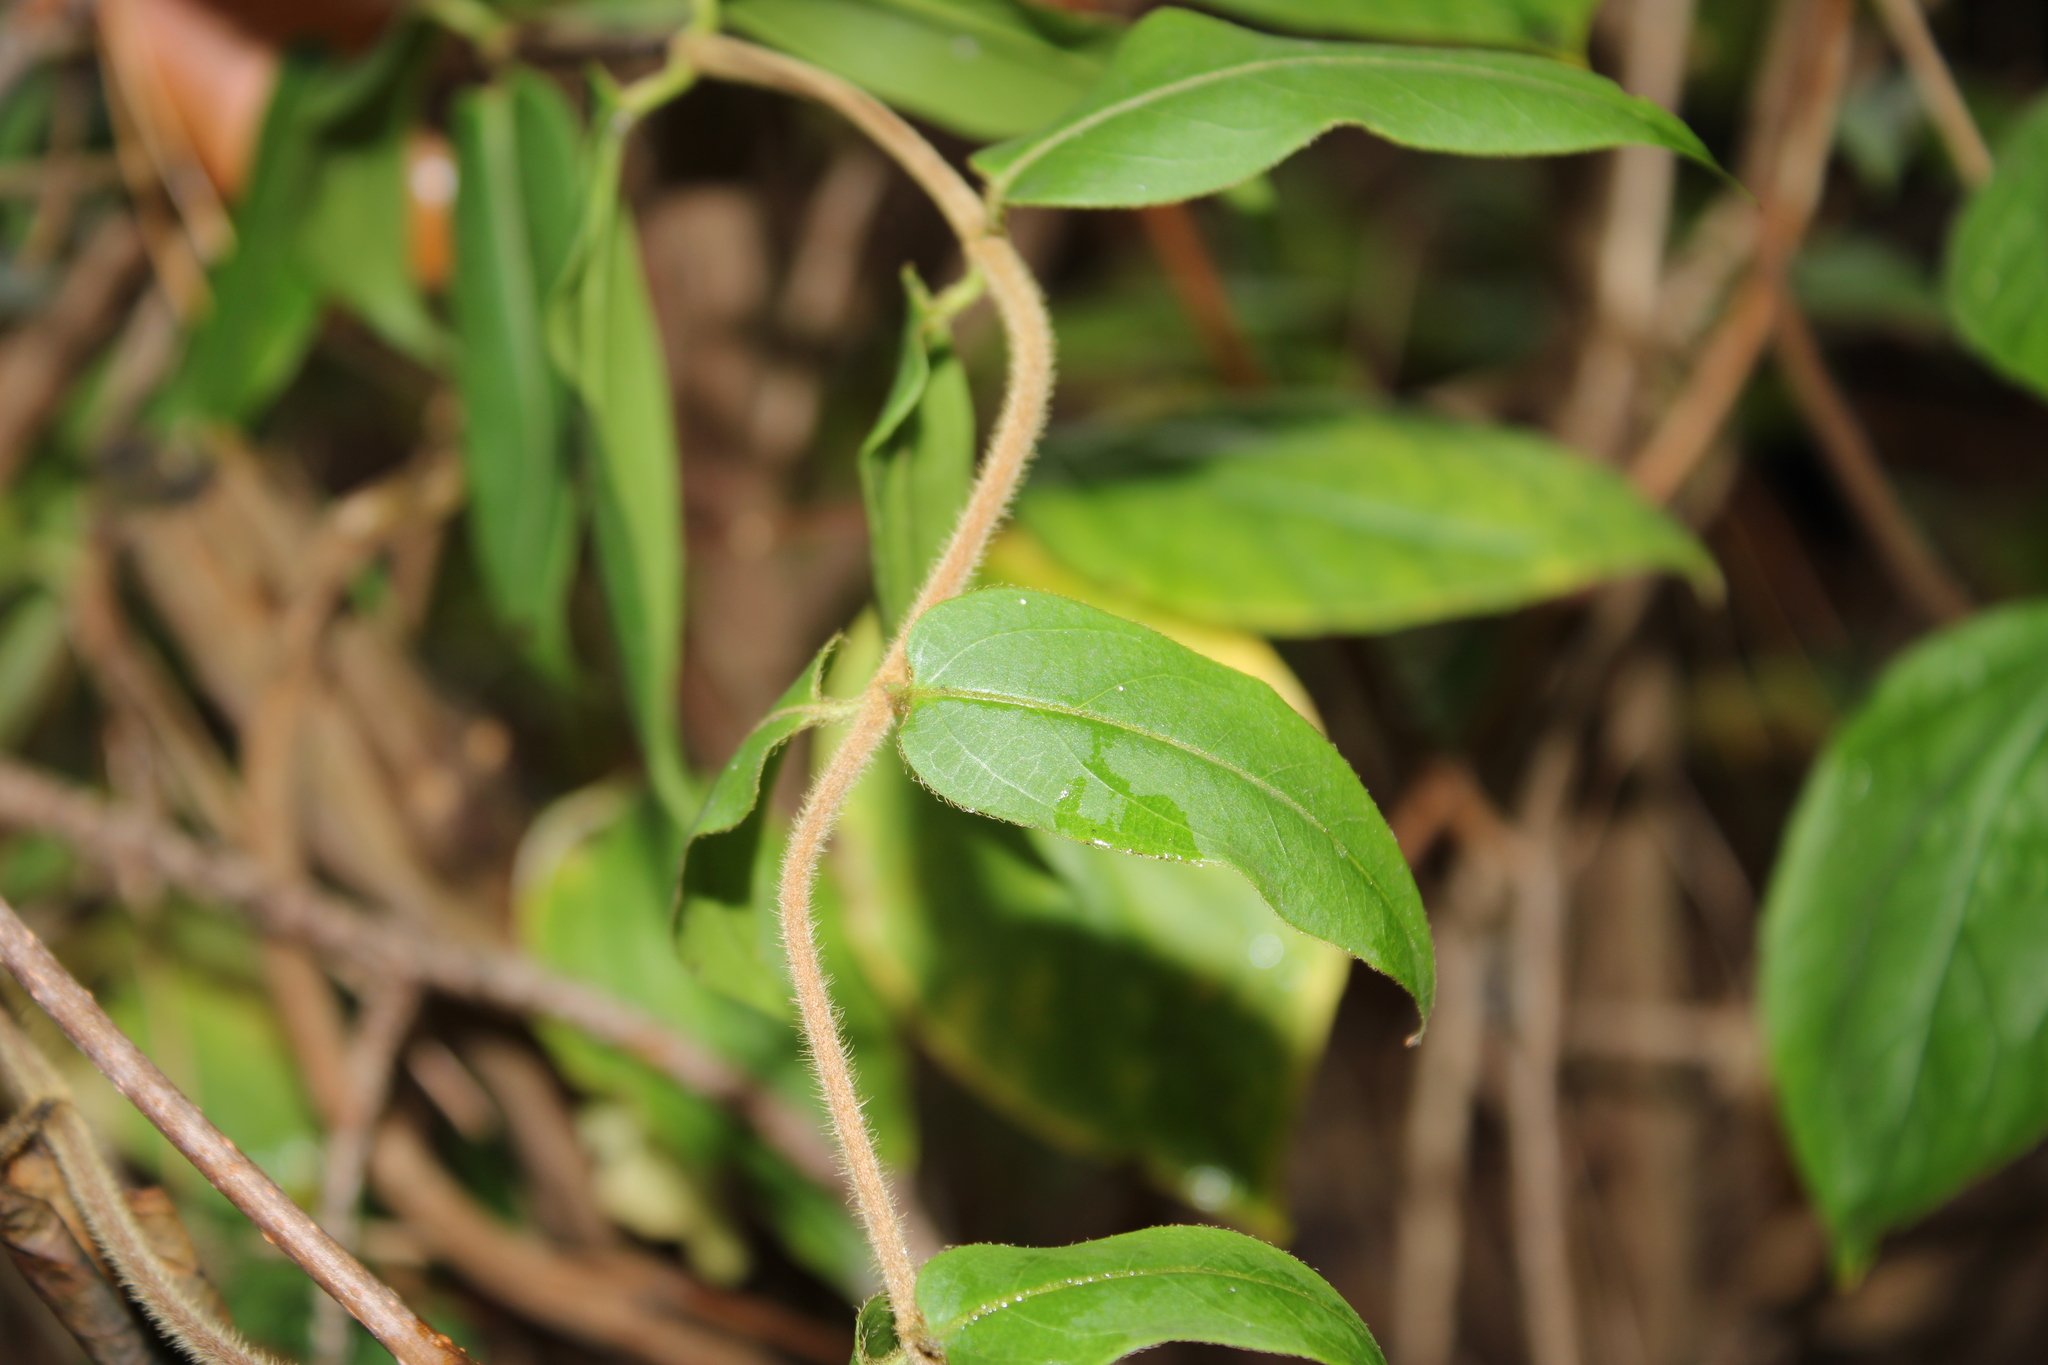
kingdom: Plantae
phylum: Tracheophyta
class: Magnoliopsida
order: Dipsacales
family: Caprifoliaceae
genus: Lonicera
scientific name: Lonicera acuminata
